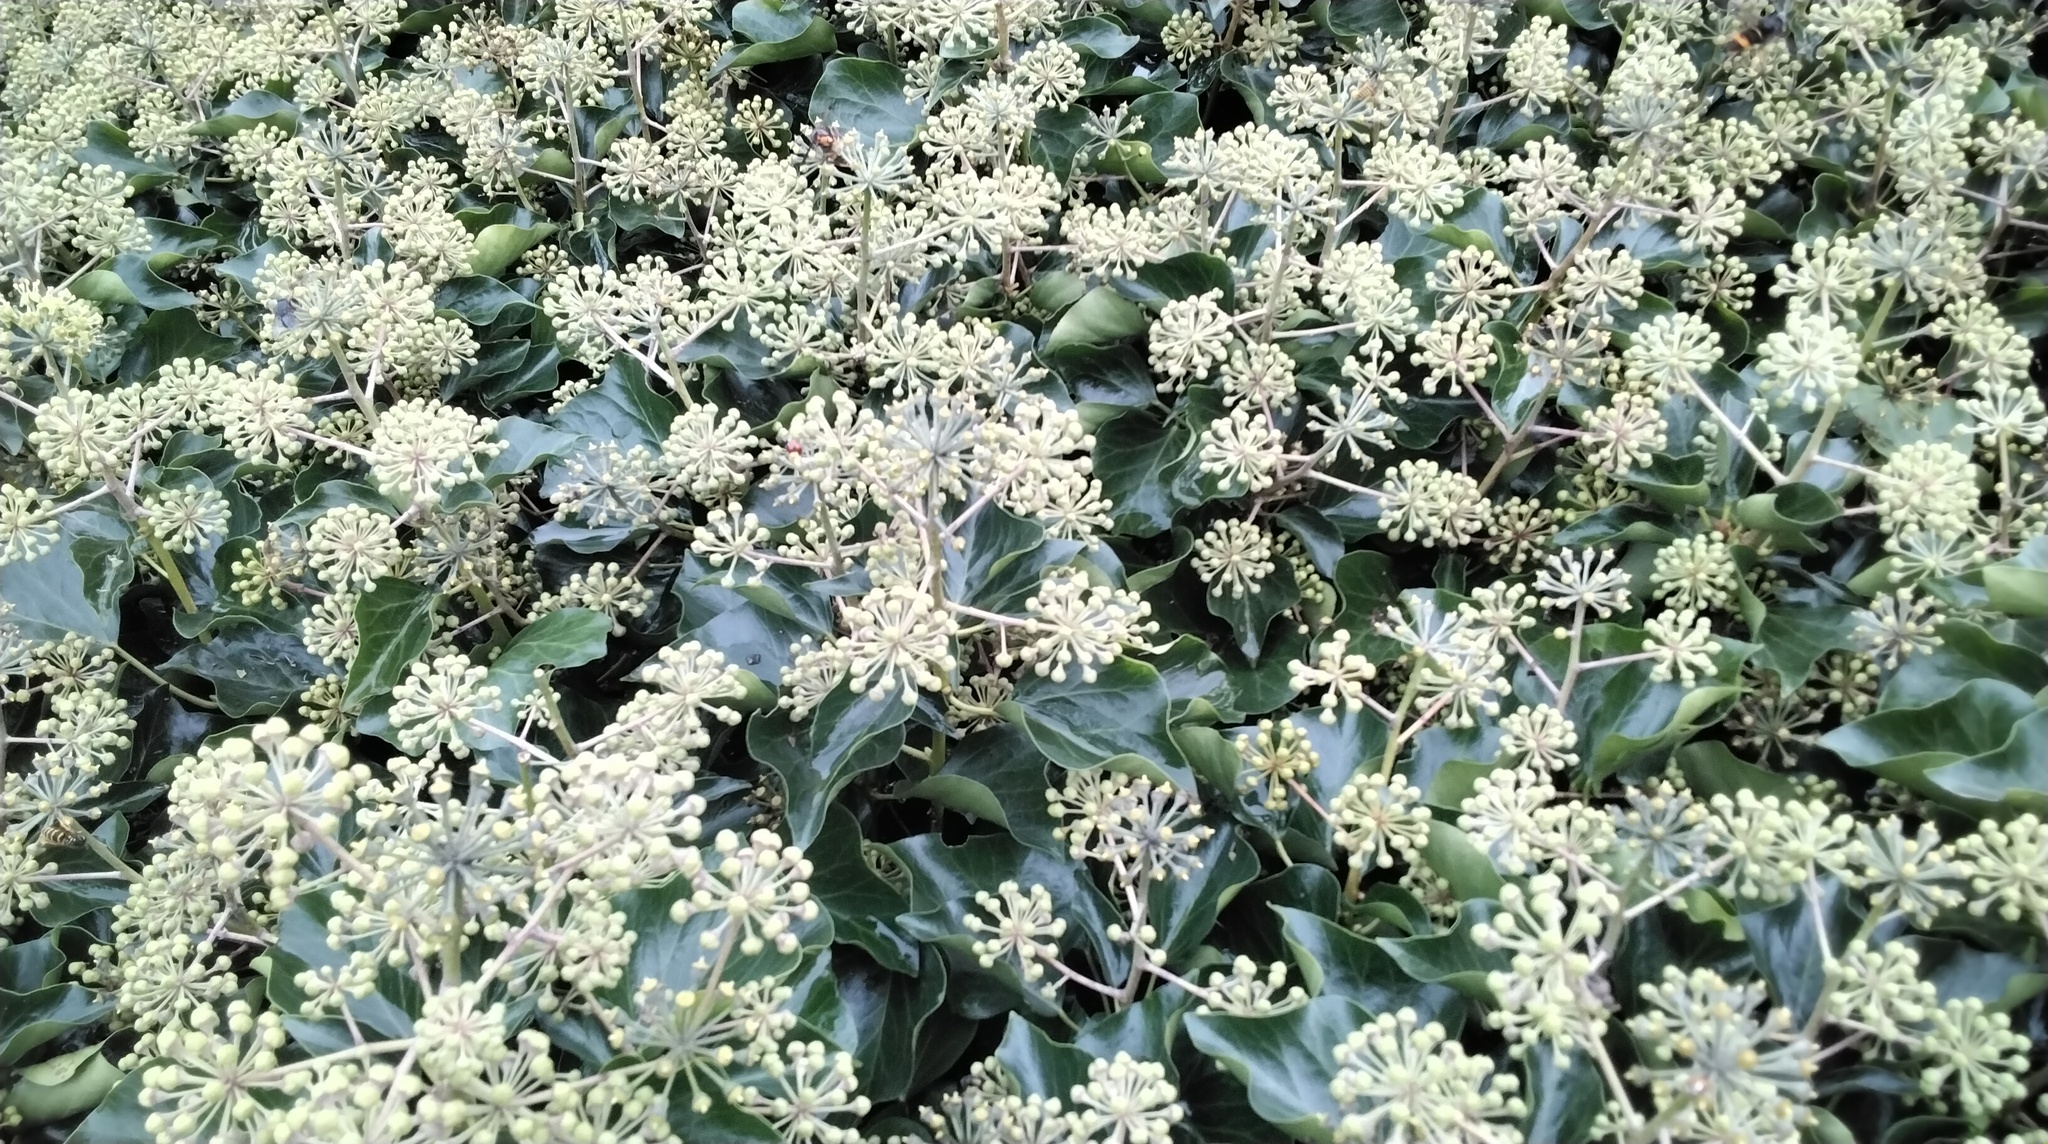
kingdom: Animalia
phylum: Arthropoda
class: Insecta
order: Hymenoptera
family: Vespidae
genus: Vespa
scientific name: Vespa velutina
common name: Asian hornet
